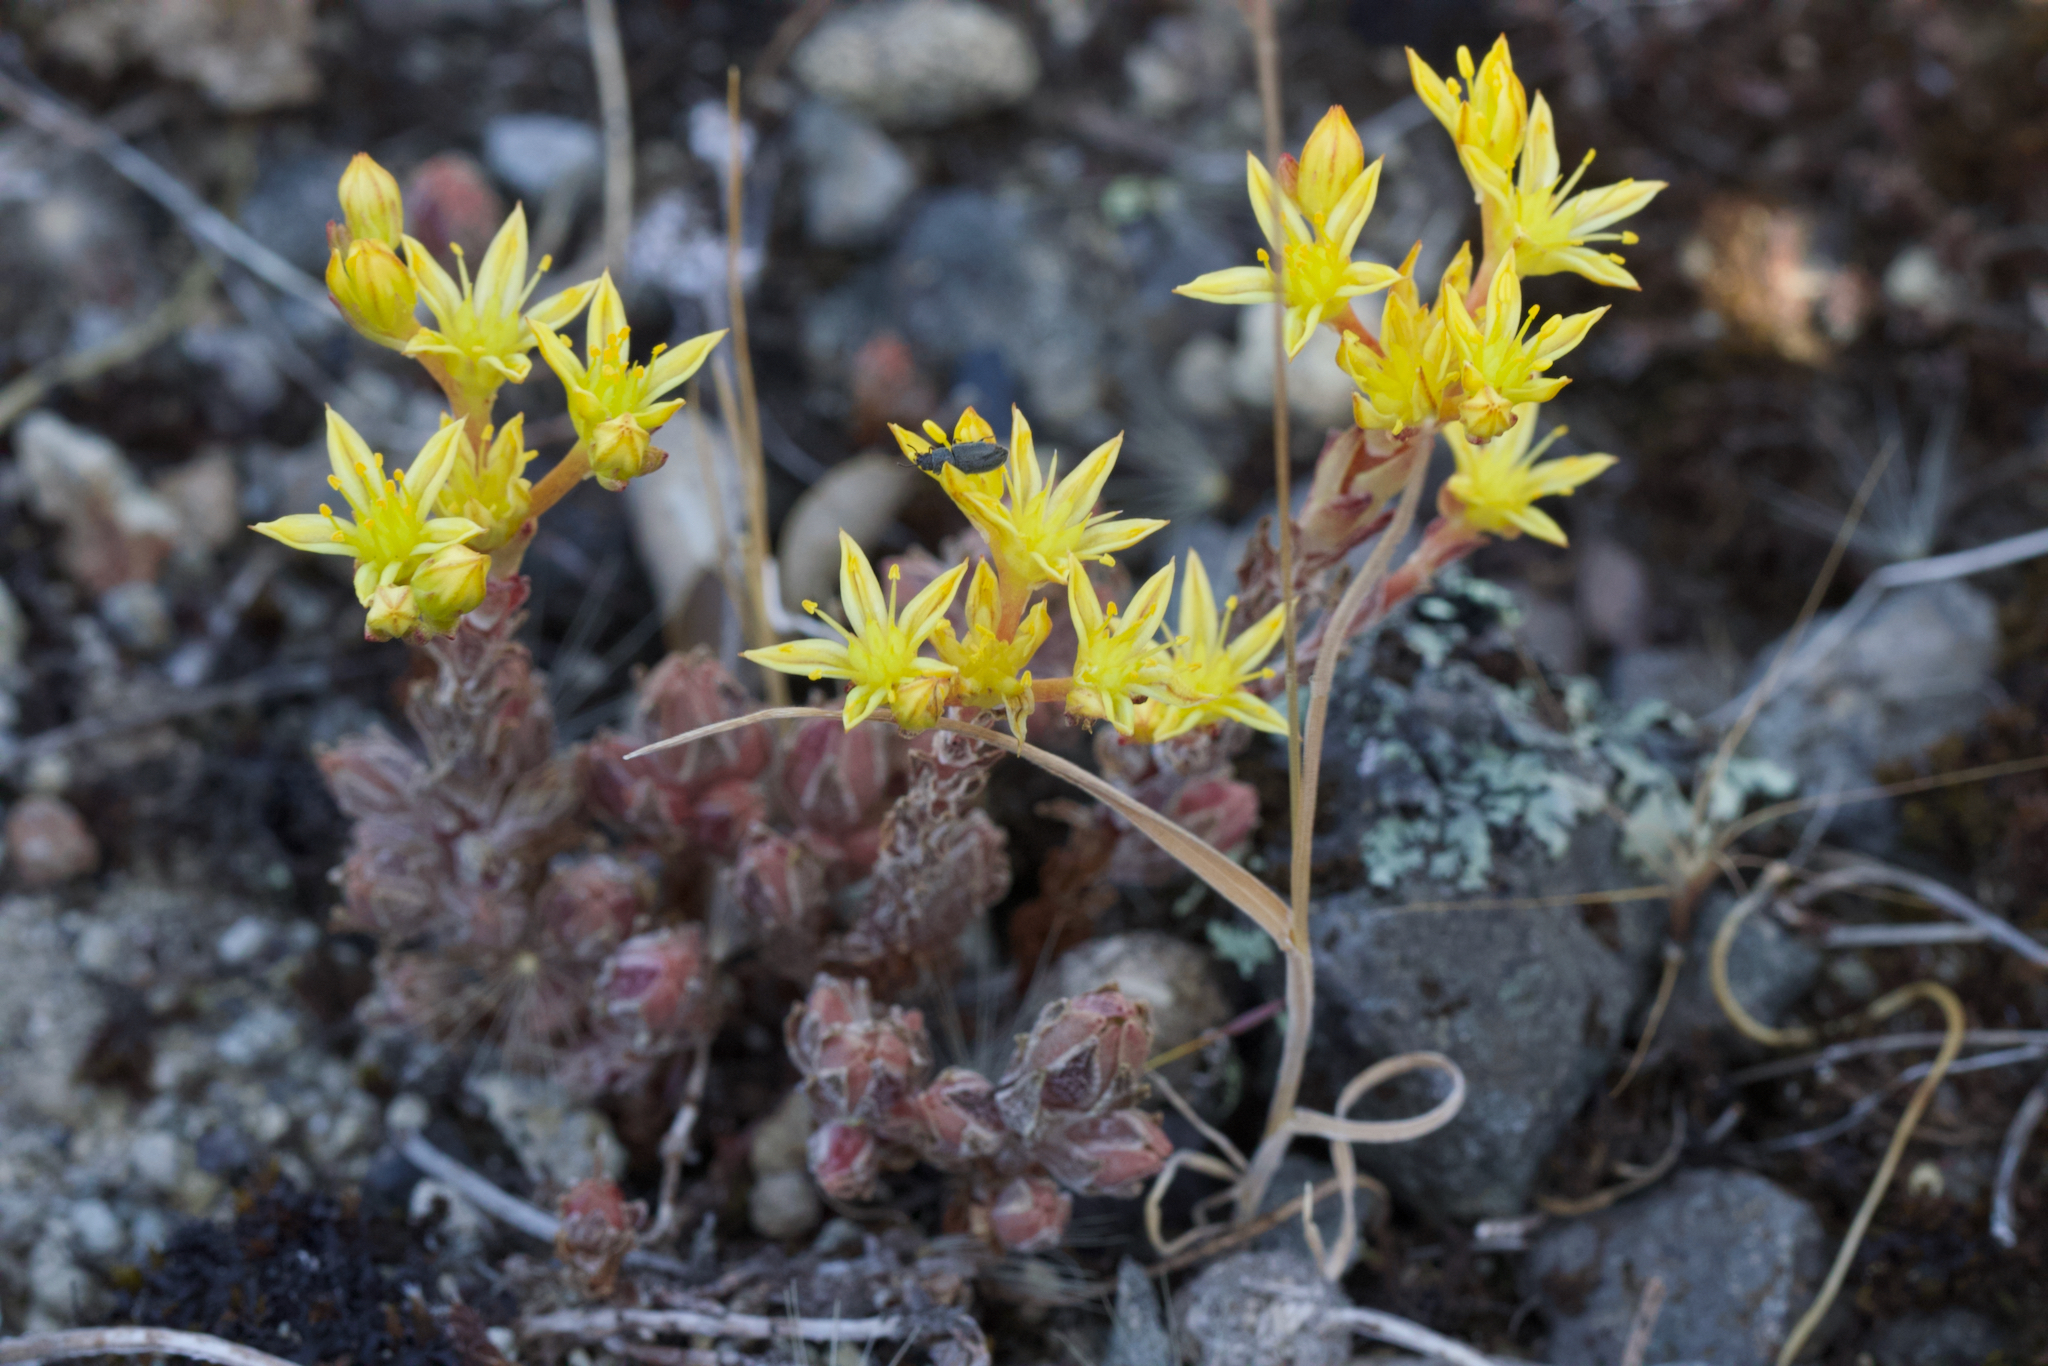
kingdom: Plantae
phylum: Tracheophyta
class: Magnoliopsida
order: Saxifragales
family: Crassulaceae
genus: Sedum
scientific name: Sedum radiatum
